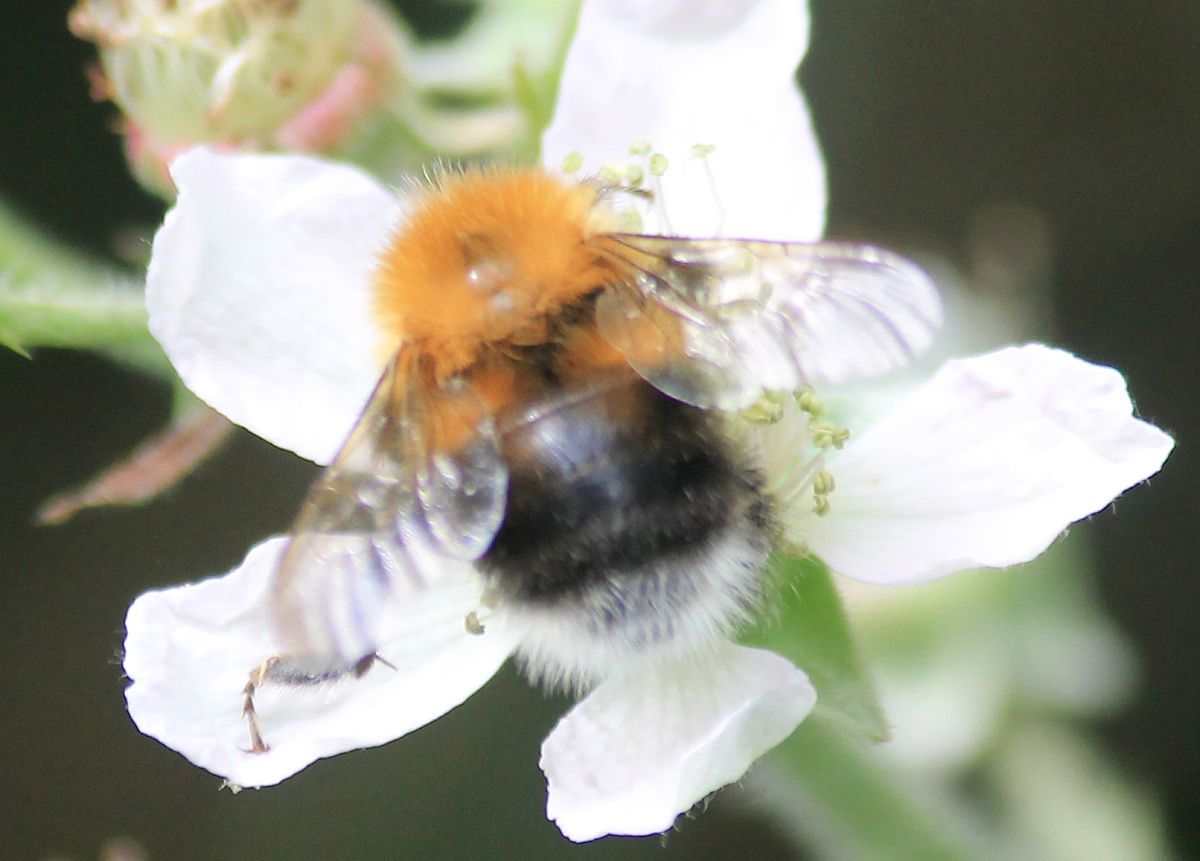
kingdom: Animalia
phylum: Arthropoda
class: Insecta
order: Hymenoptera
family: Apidae
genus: Bombus
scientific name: Bombus hypnorum
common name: New garden bumblebee
